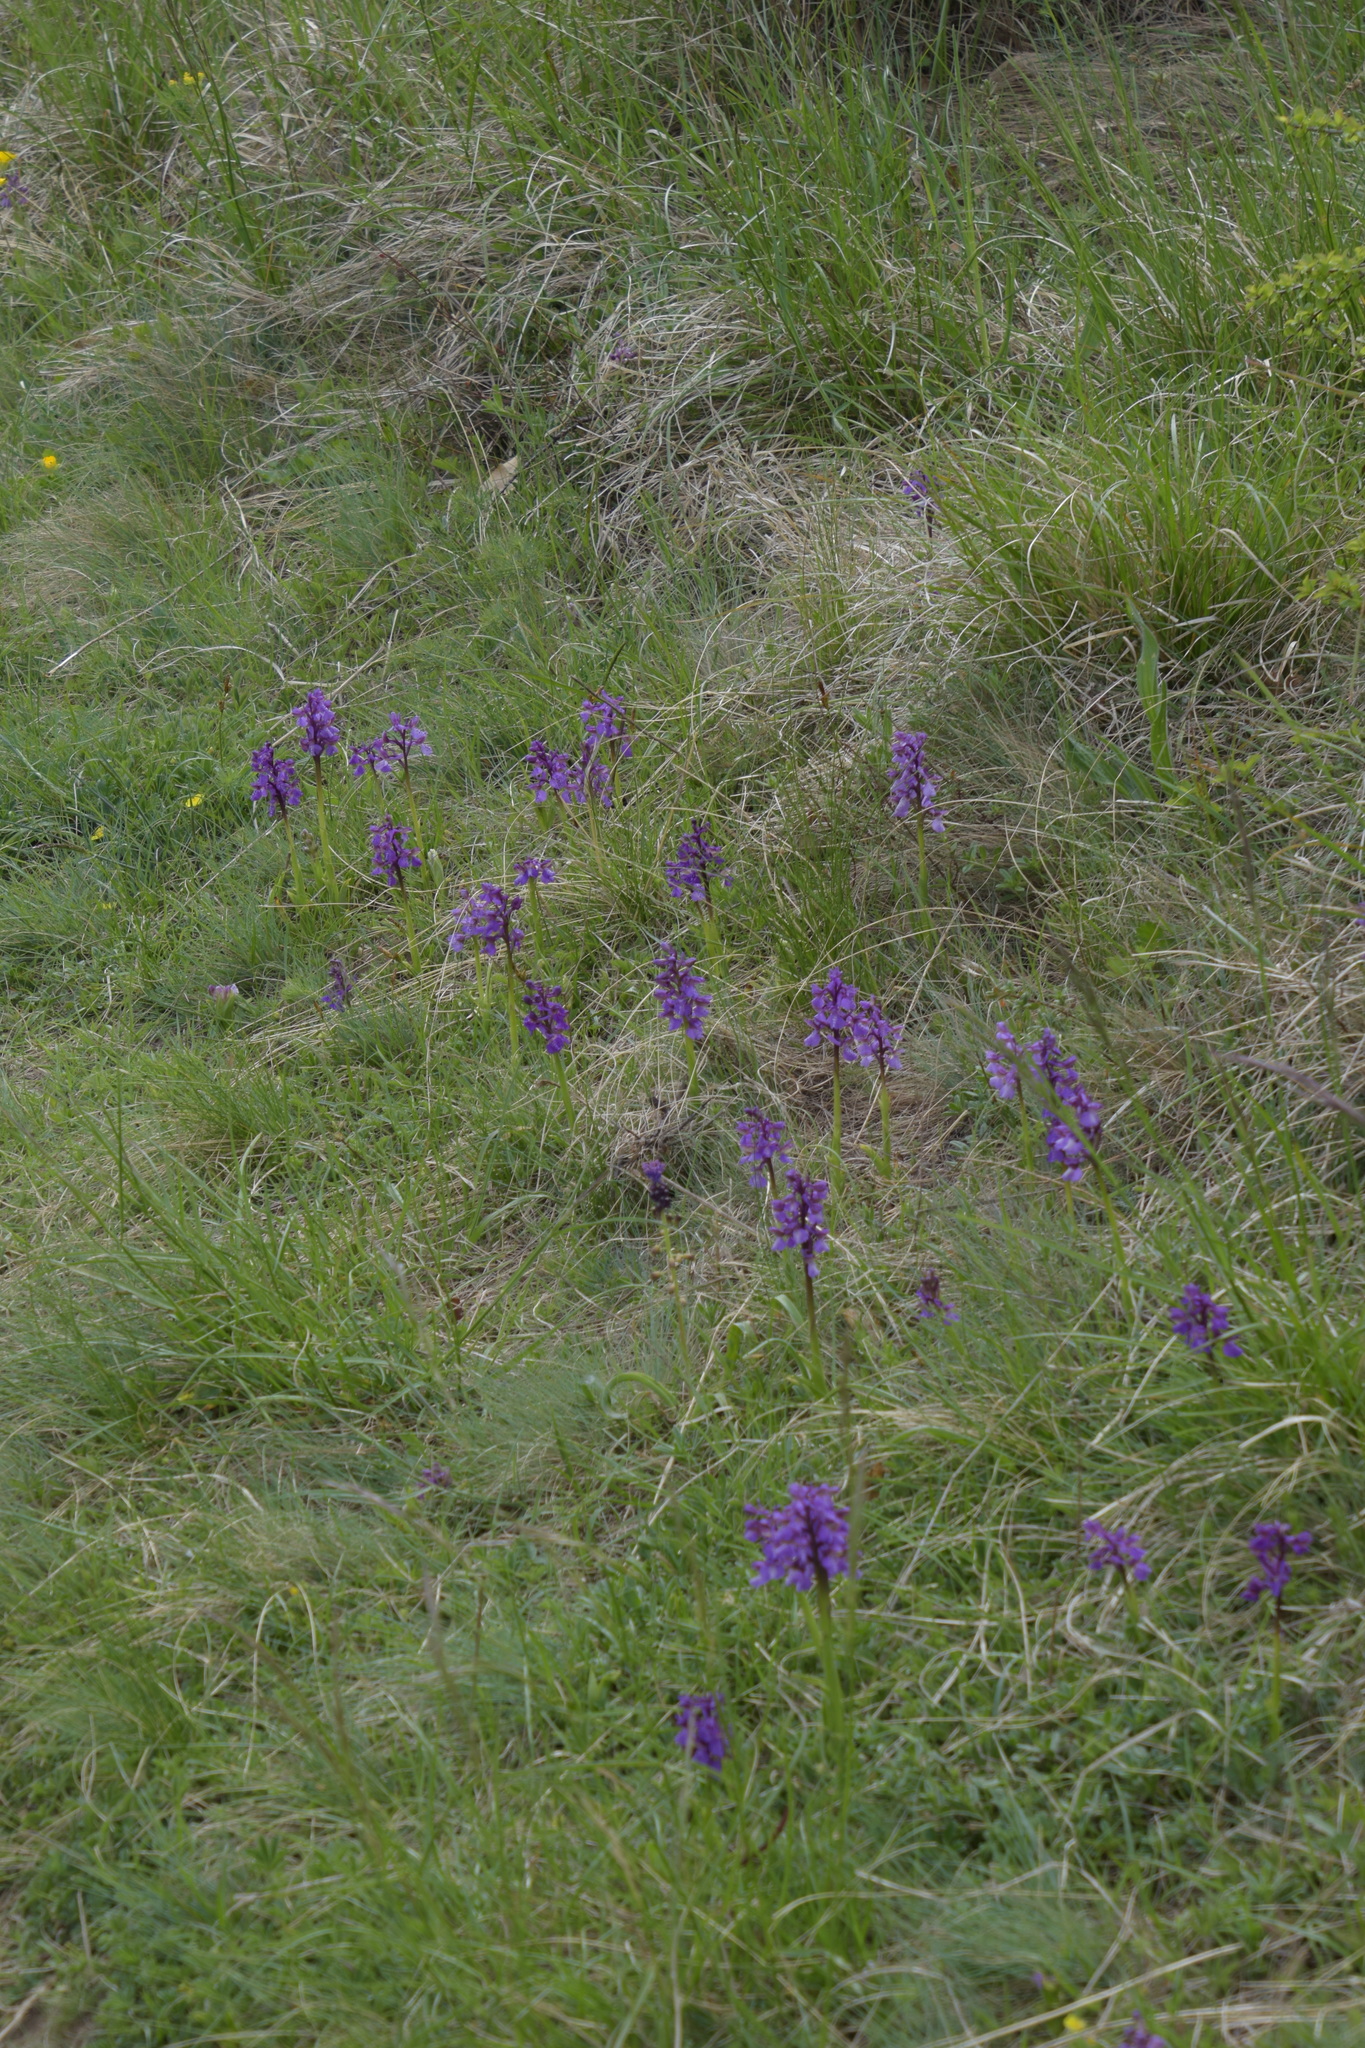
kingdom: Plantae
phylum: Tracheophyta
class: Liliopsida
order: Asparagales
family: Orchidaceae
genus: Anacamptis
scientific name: Anacamptis morio
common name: Green-winged orchid
